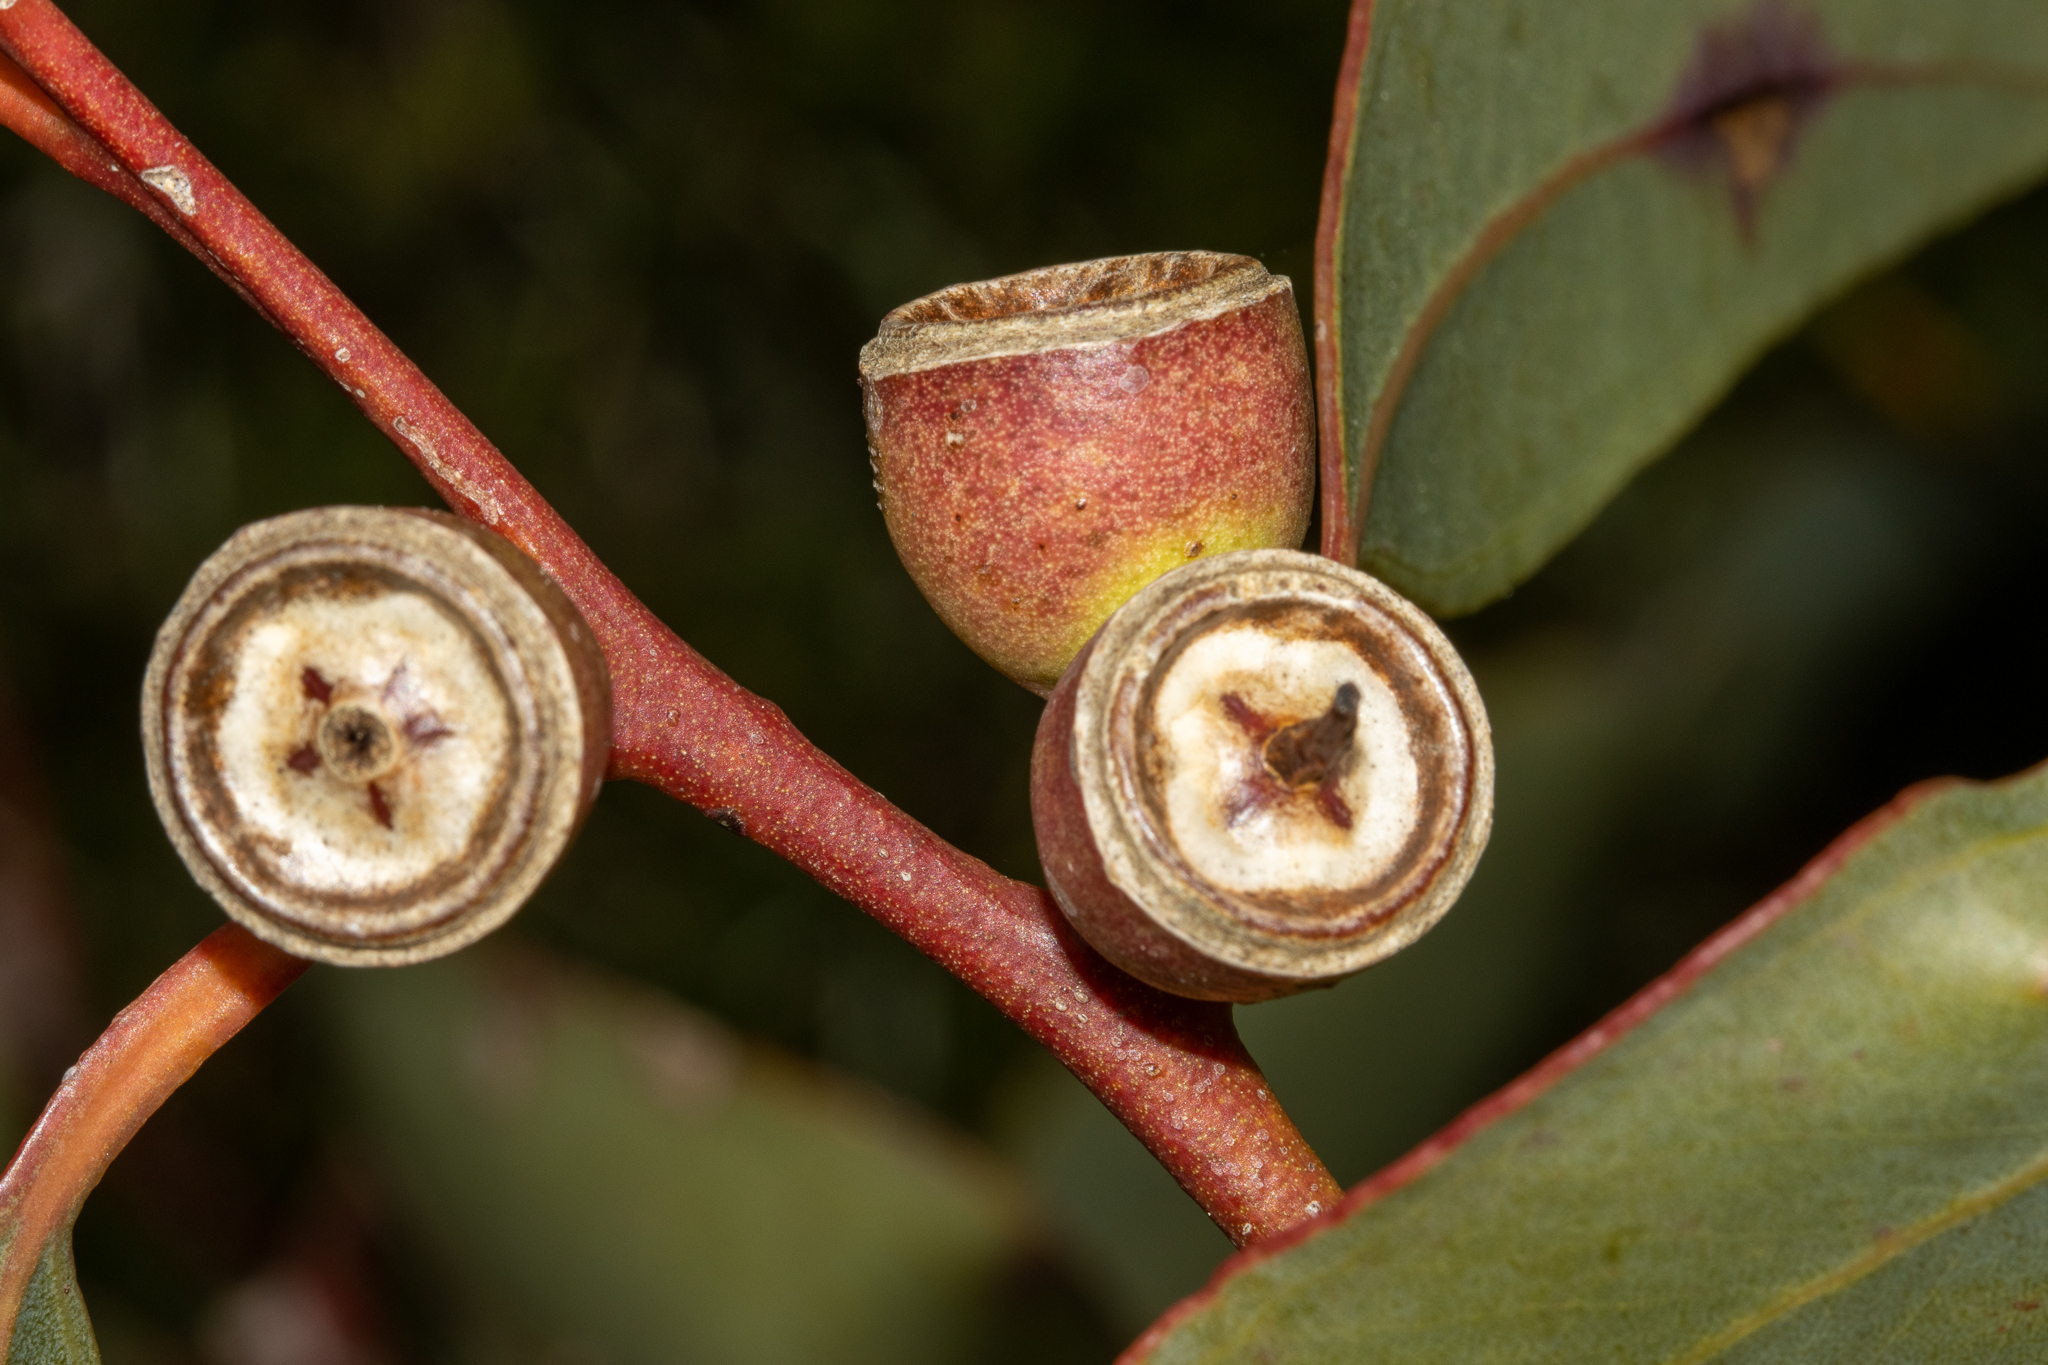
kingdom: Plantae
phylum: Tracheophyta
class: Magnoliopsida
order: Myrtales
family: Myrtaceae
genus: Eucalyptus
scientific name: Eucalyptus cosmophylla
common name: Bog-gum
